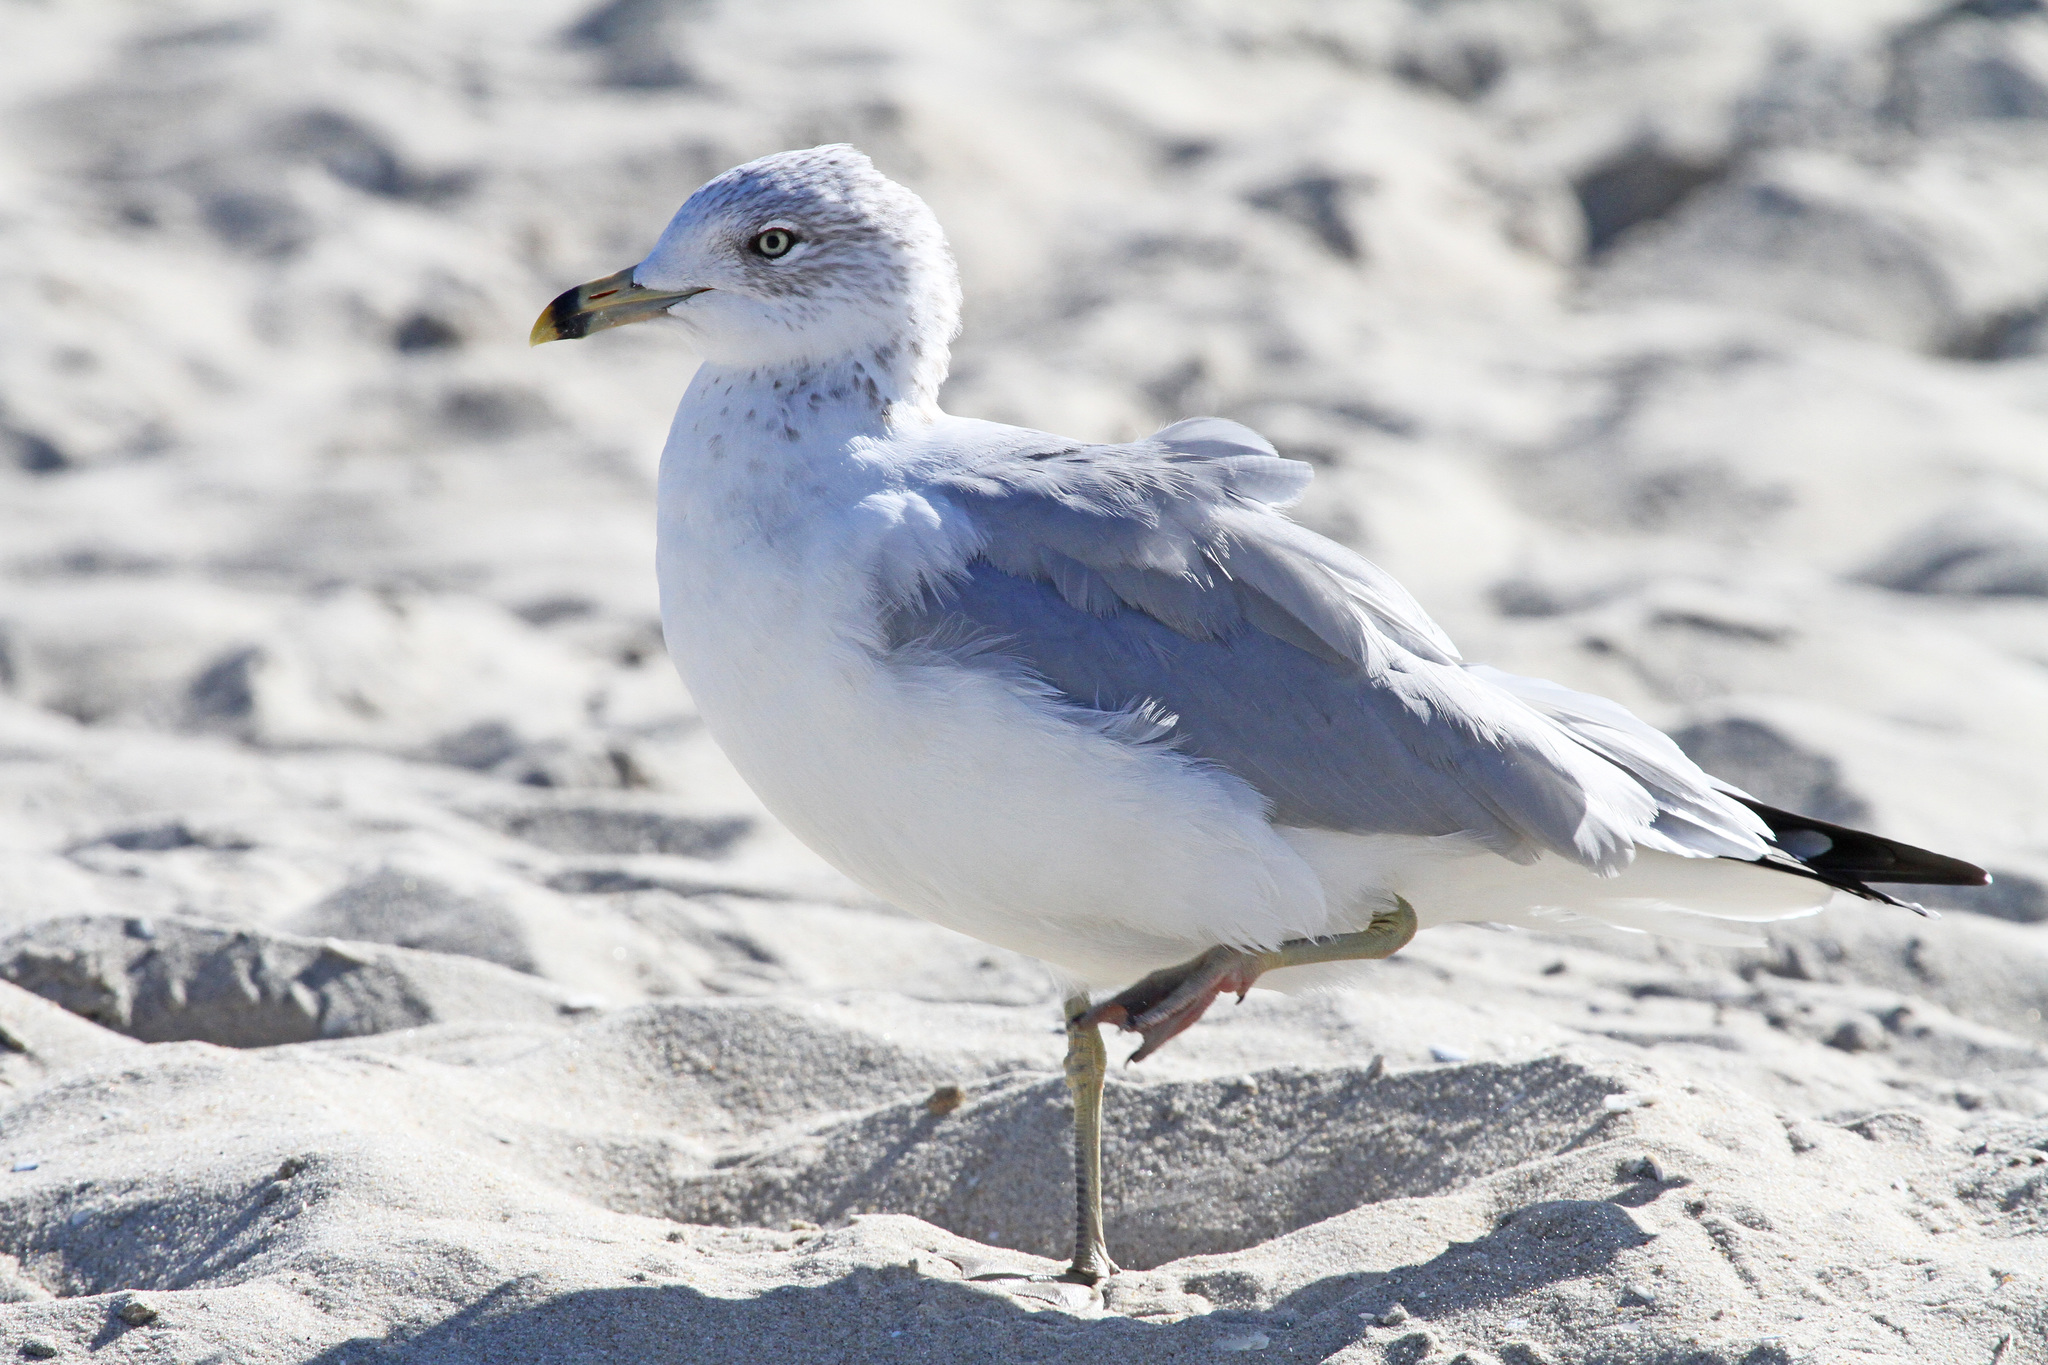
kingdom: Animalia
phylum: Chordata
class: Aves
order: Charadriiformes
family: Laridae
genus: Larus
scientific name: Larus delawarensis
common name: Ring-billed gull
